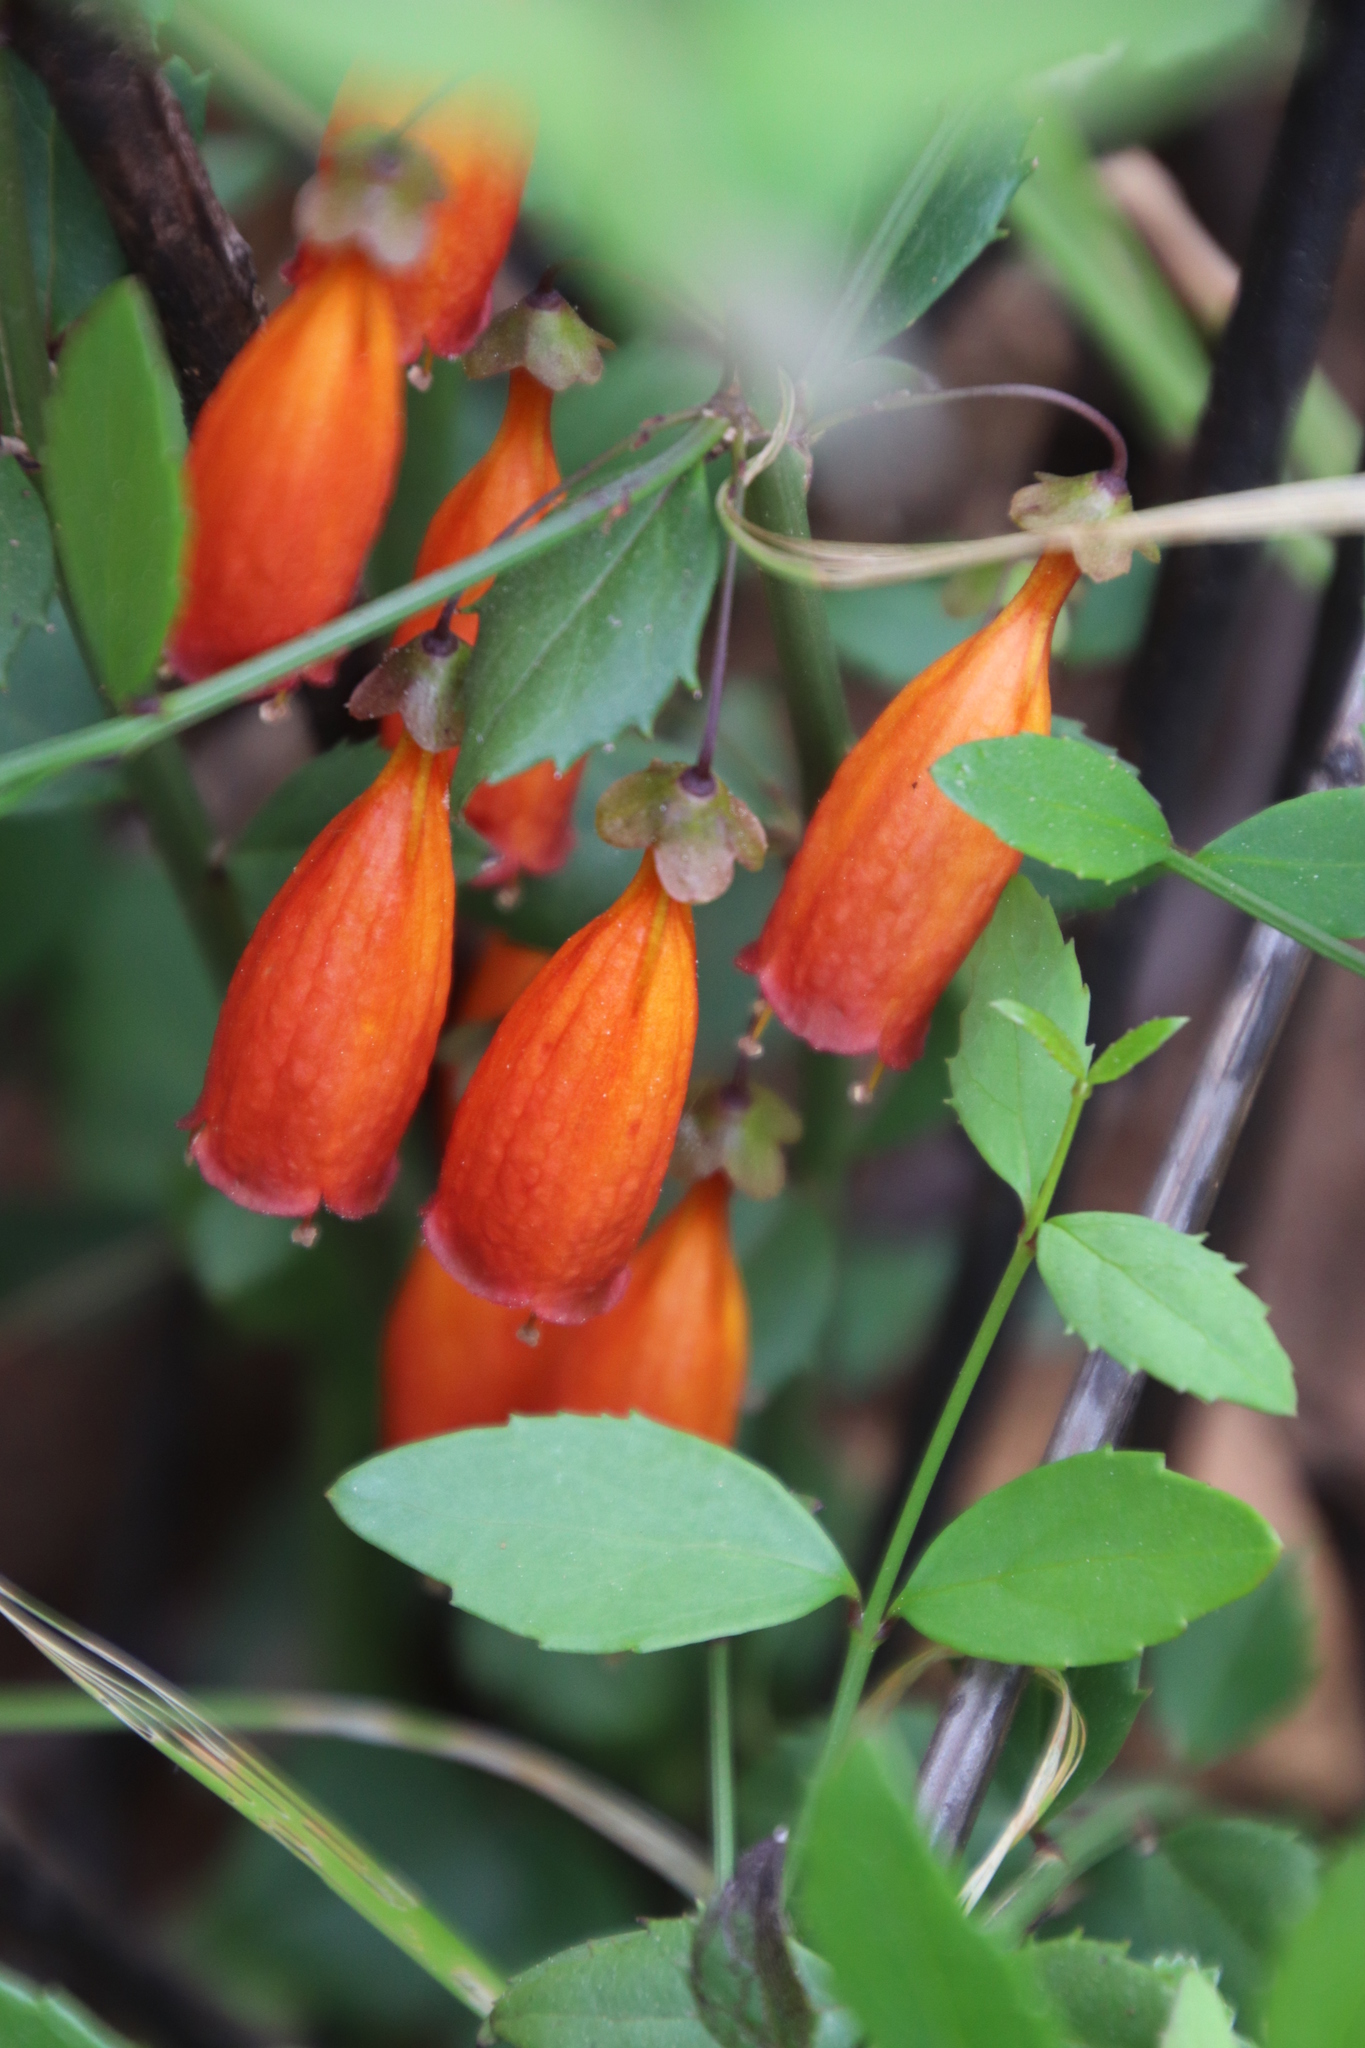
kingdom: Plantae
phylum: Tracheophyta
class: Magnoliopsida
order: Lamiales
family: Stilbaceae
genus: Halleria
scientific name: Halleria elliptica
